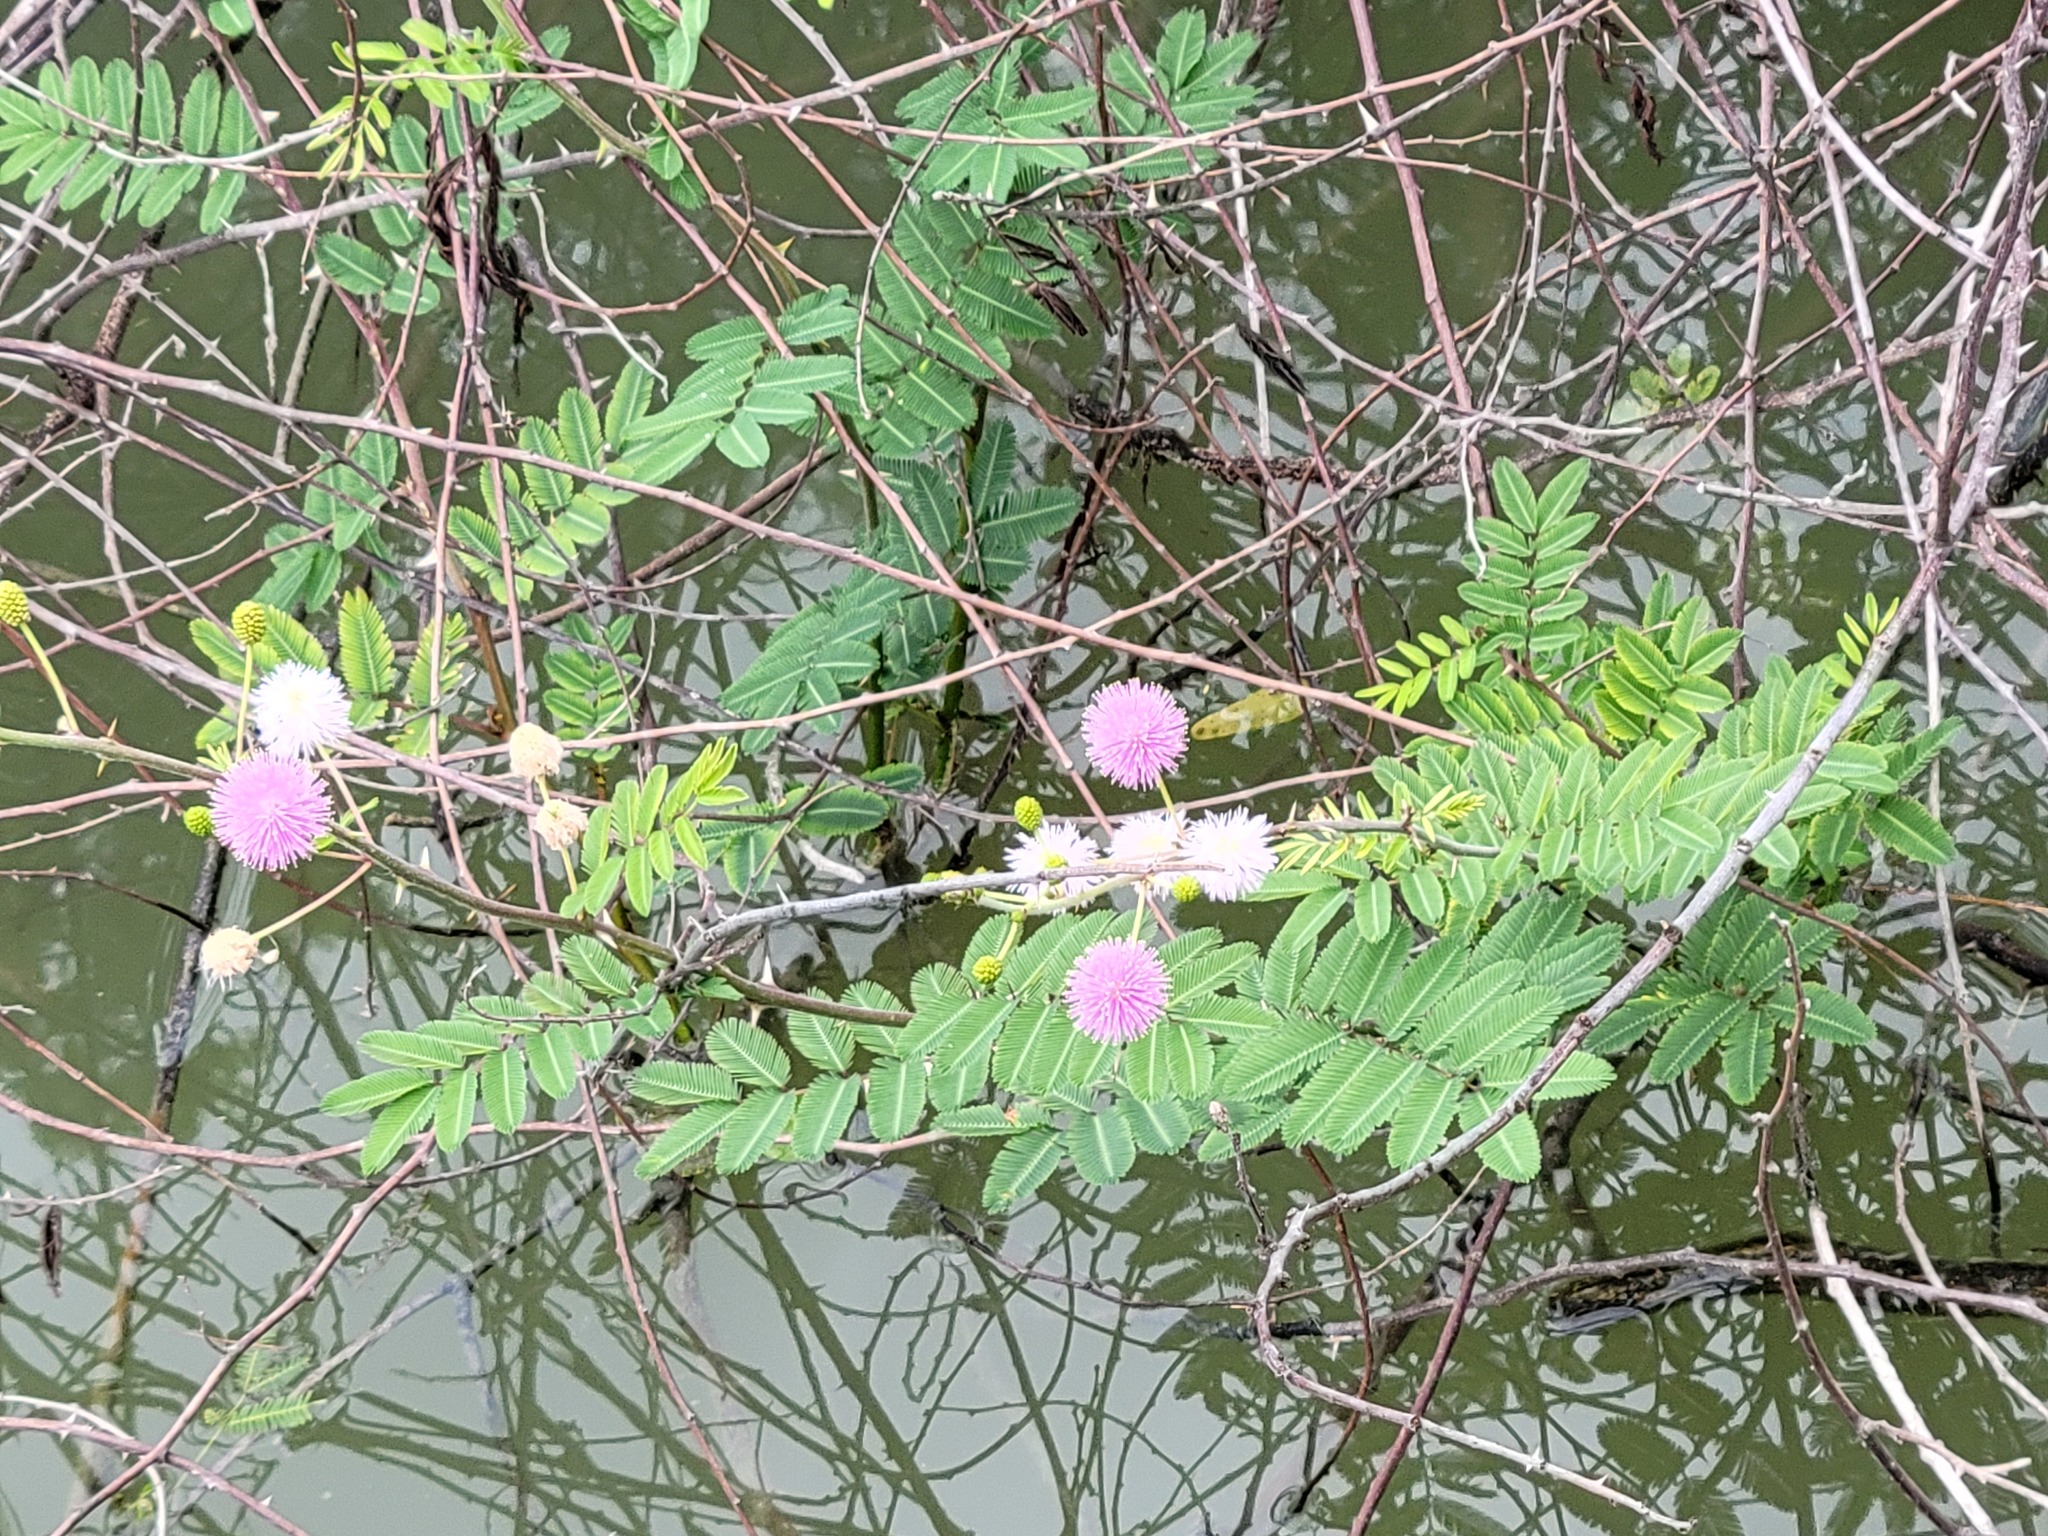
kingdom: Plantae
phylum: Tracheophyta
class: Magnoliopsida
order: Fabales
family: Fabaceae
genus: Mimosa
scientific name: Mimosa pigra
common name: Black mimosa
